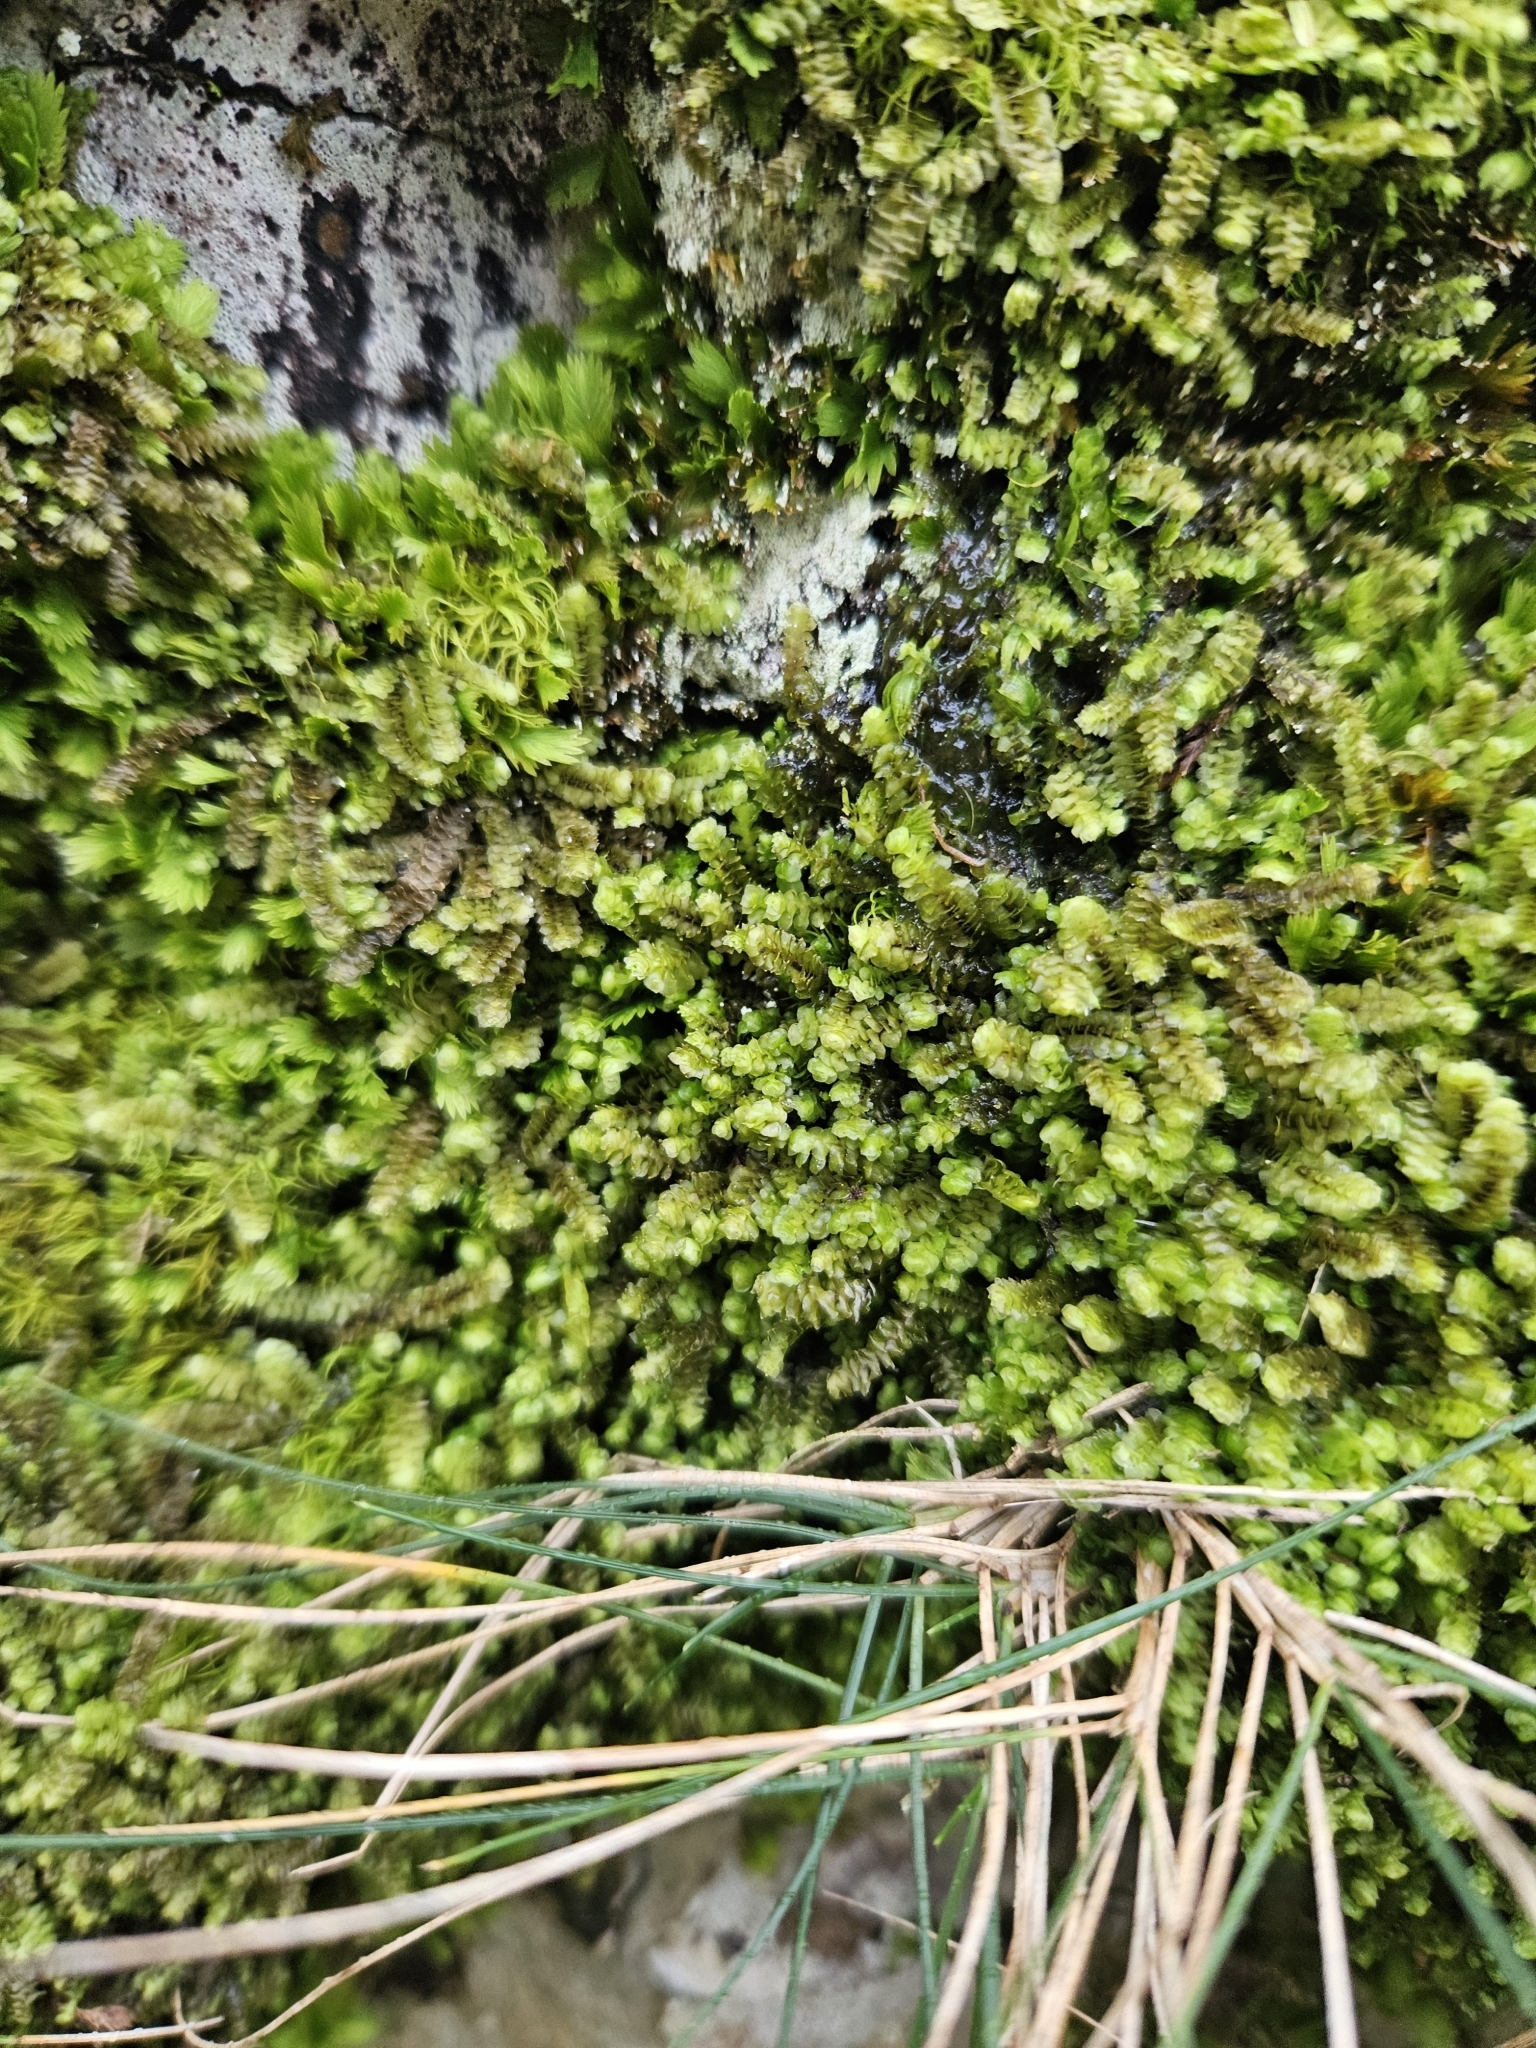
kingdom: Plantae
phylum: Marchantiophyta
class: Jungermanniopsida
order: Jungermanniales
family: Scapaniaceae
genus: Scapania
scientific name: Scapania aspera
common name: Rough earwort
